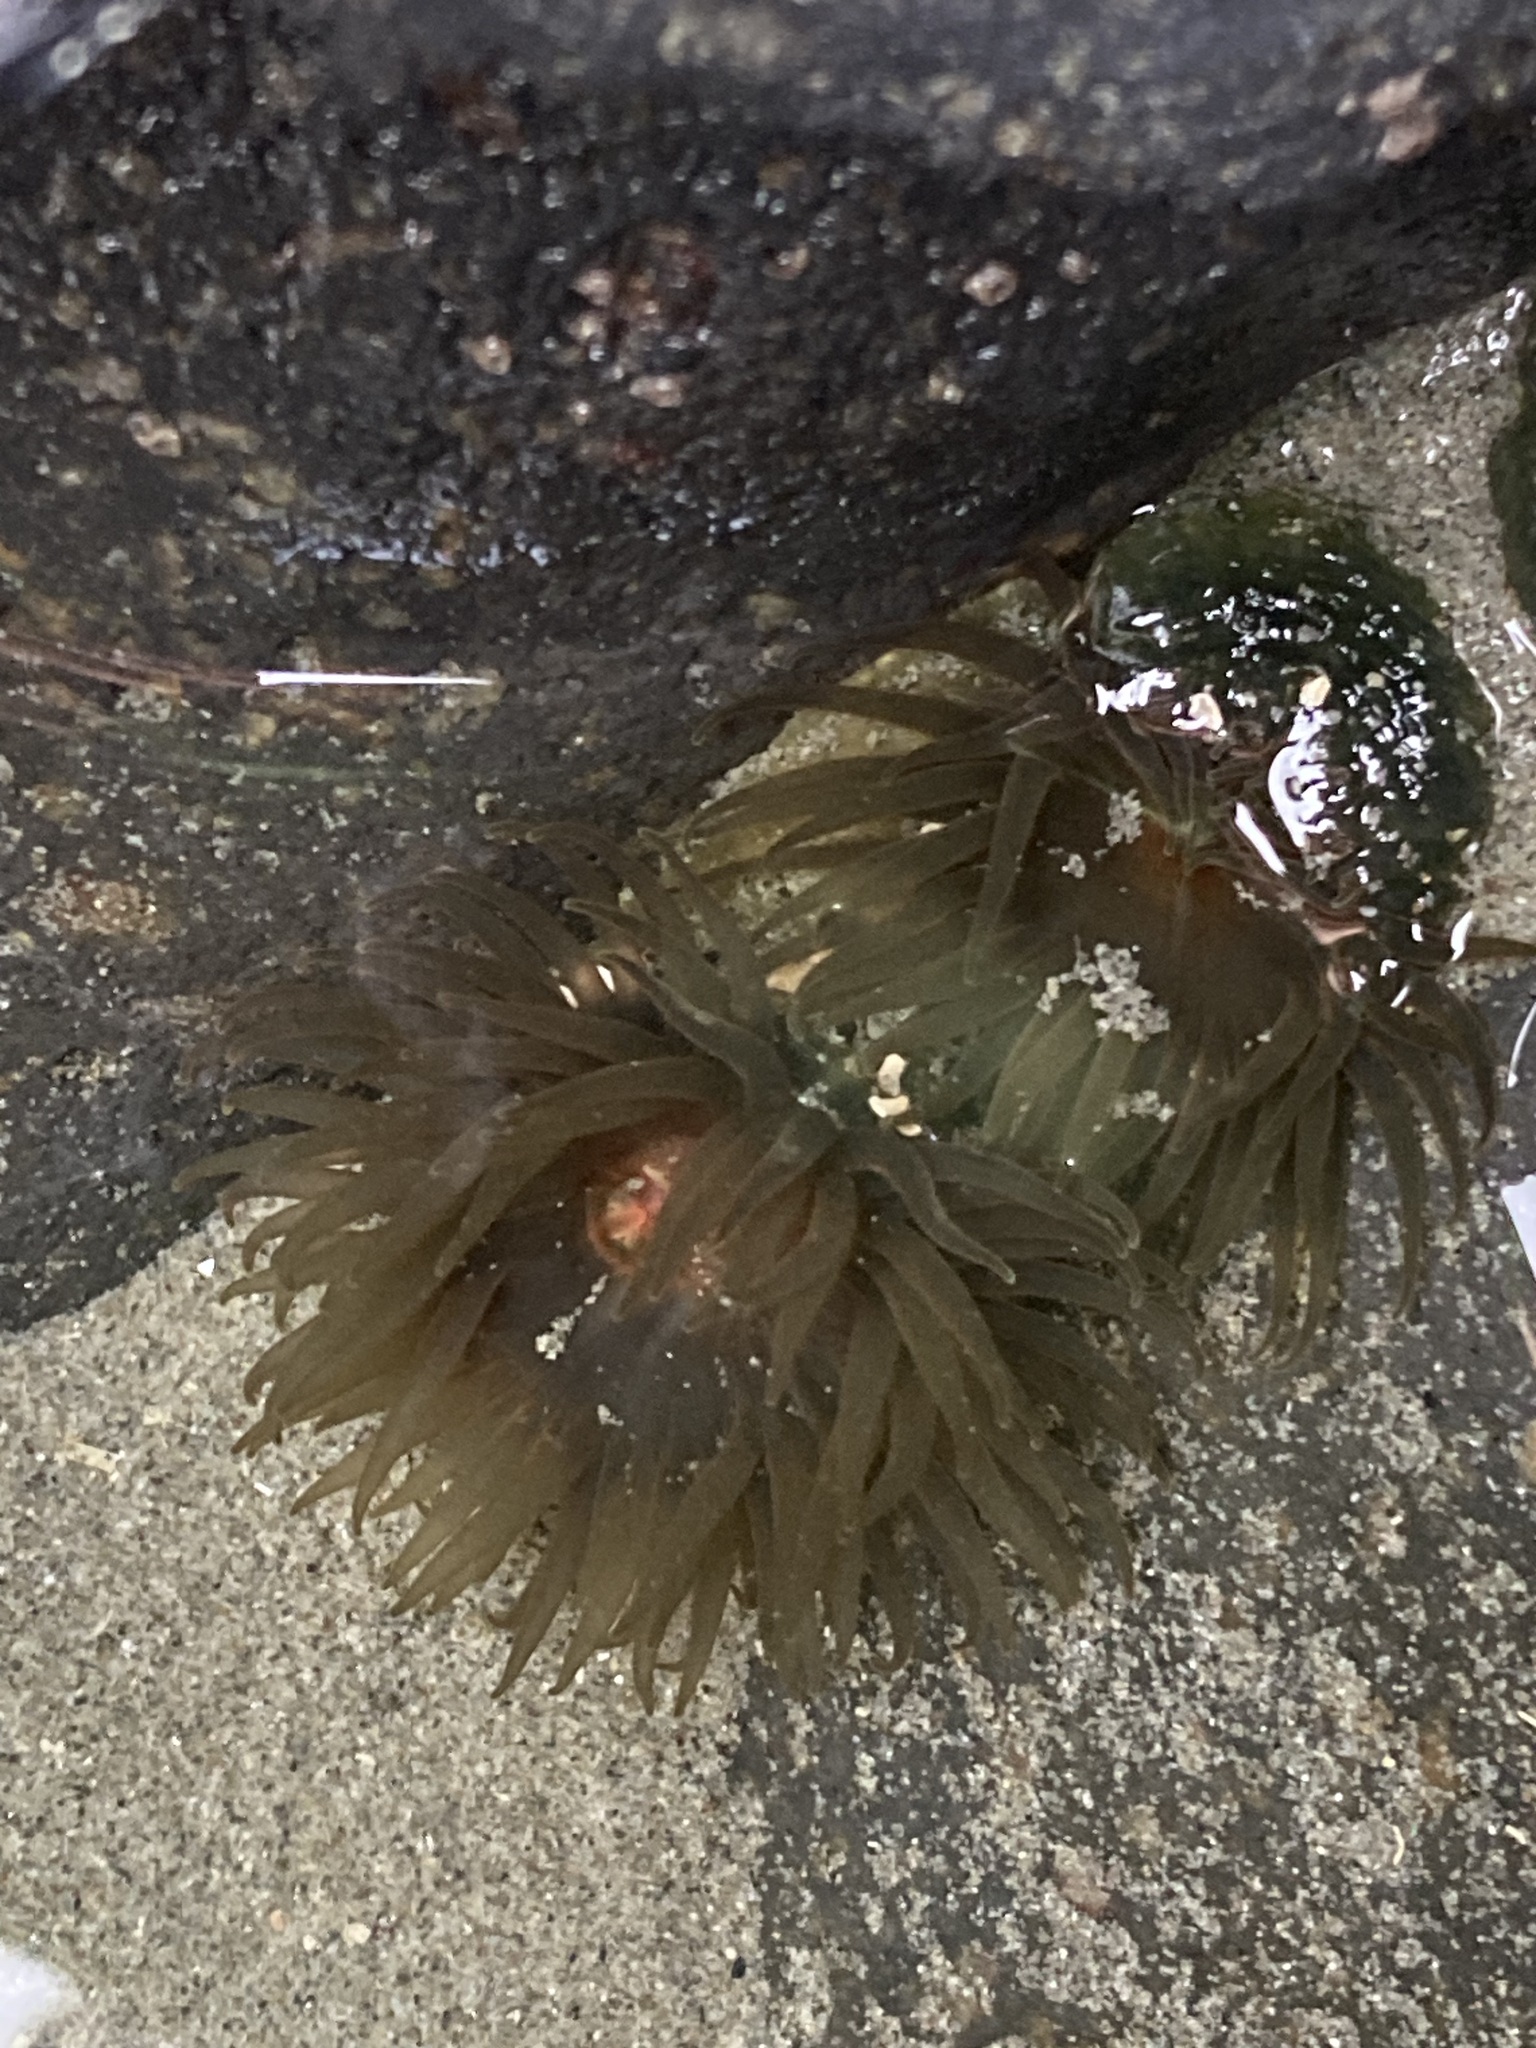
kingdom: Animalia
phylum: Cnidaria
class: Anthozoa
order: Actiniaria
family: Actiniidae
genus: Isactinia
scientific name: Isactinia olivacea
